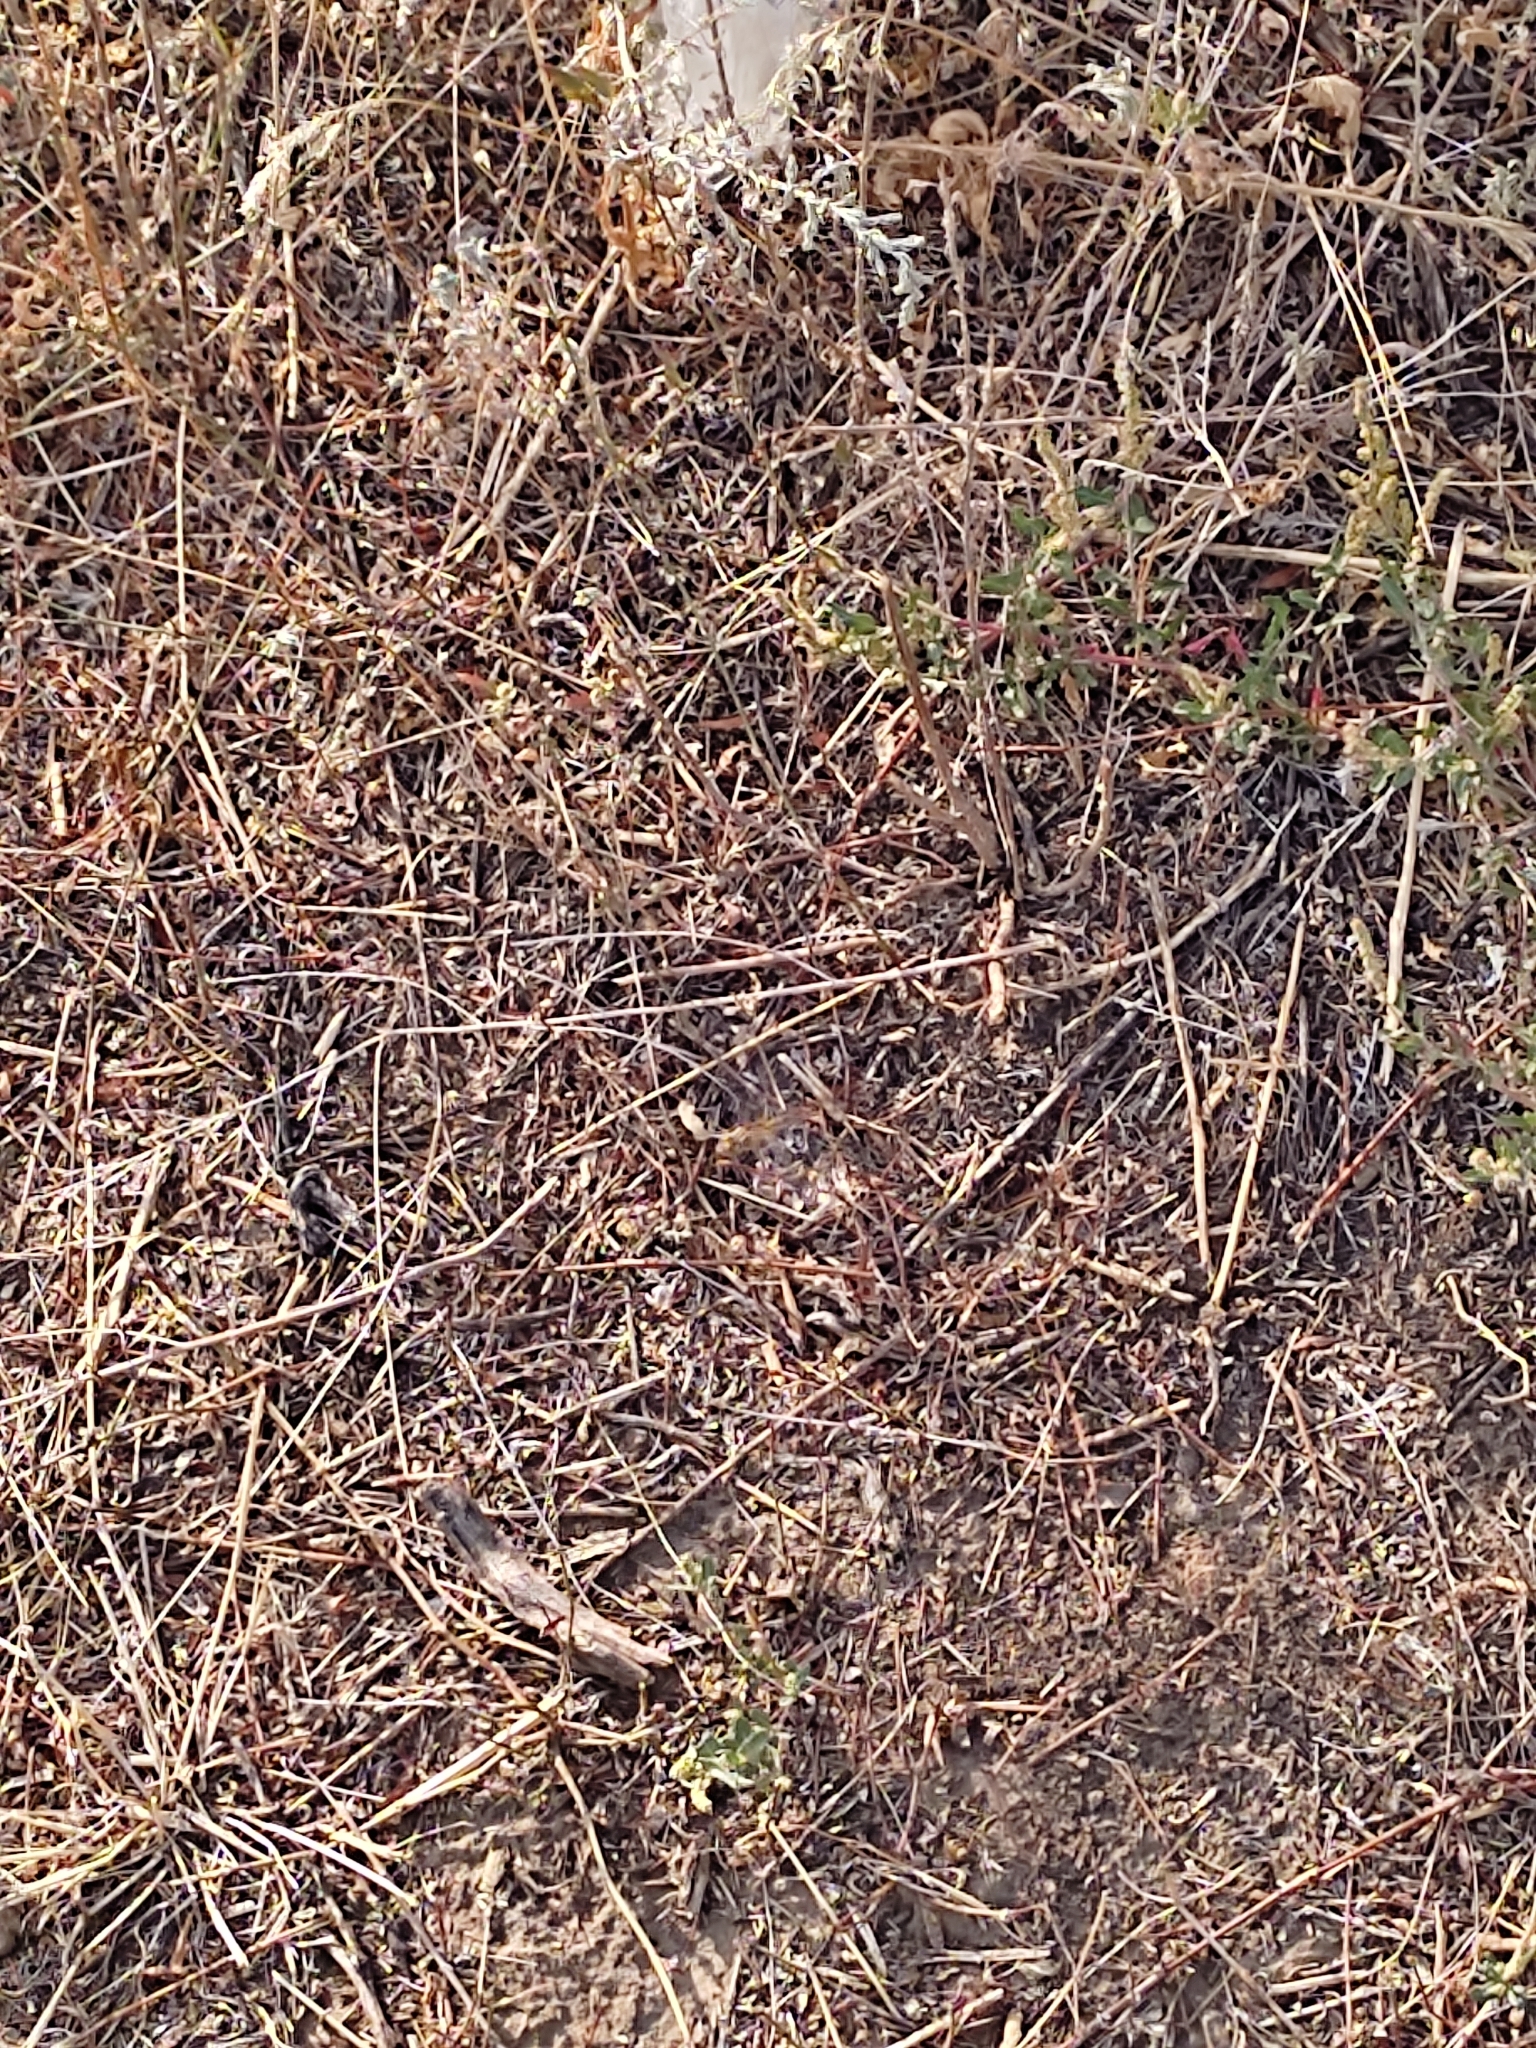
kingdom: Animalia
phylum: Arthropoda
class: Insecta
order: Odonata
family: Libellulidae
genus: Sympetrum
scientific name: Sympetrum meridionale
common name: Southern darter
